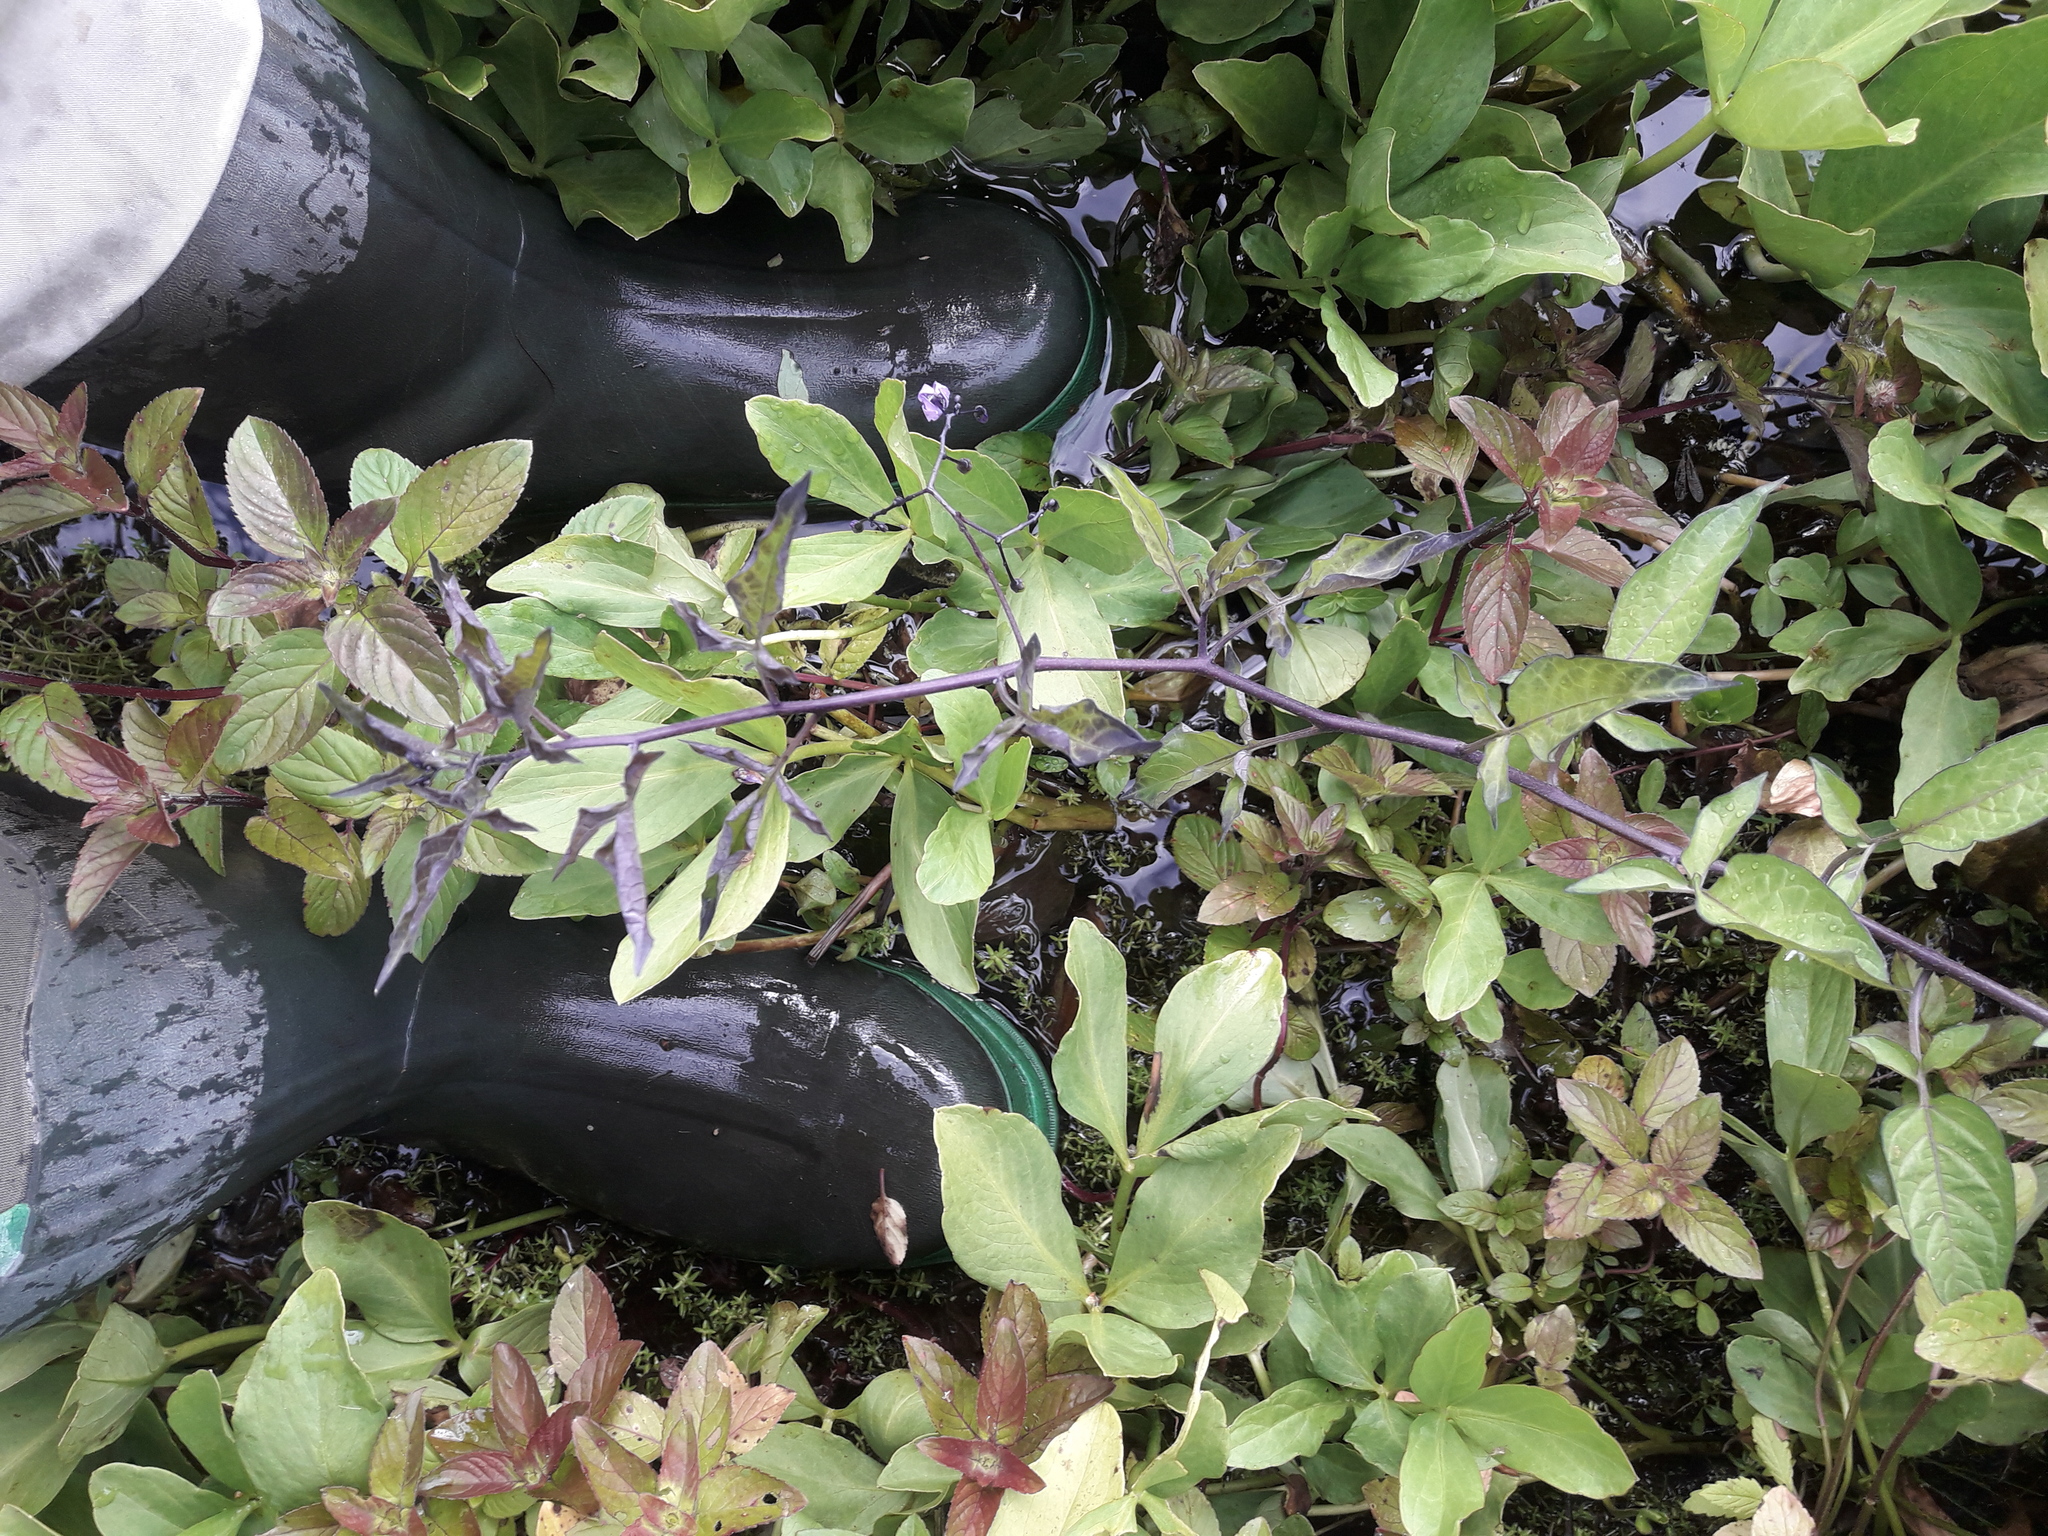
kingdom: Plantae
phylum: Tracheophyta
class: Magnoliopsida
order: Saxifragales
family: Crassulaceae
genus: Crassula
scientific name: Crassula helmsii
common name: New zealand pigmyweed
